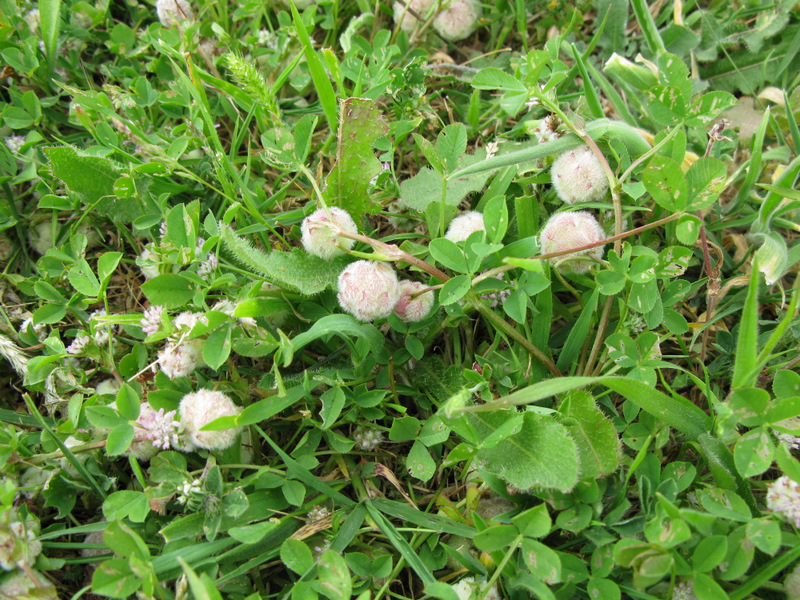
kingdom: Plantae
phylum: Tracheophyta
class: Magnoliopsida
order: Fabales
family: Fabaceae
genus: Trifolium
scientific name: Trifolium tomentosum
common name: Woolly clover
